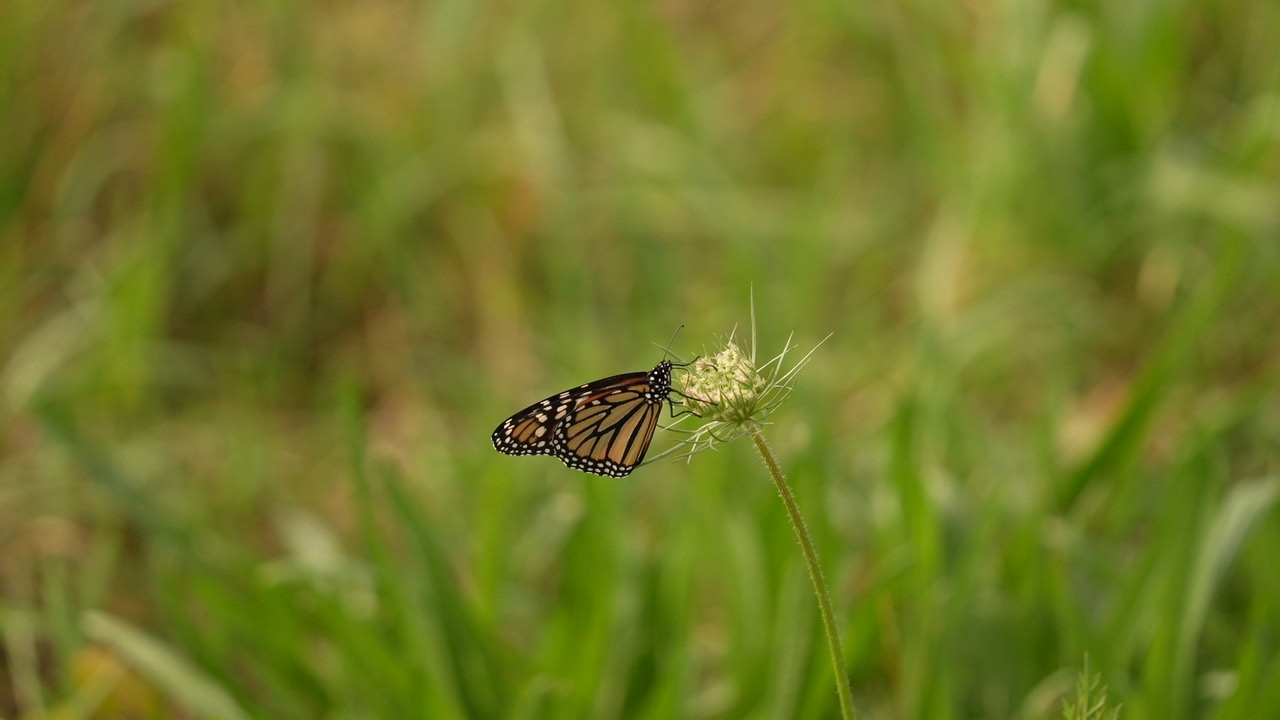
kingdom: Animalia
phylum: Arthropoda
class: Insecta
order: Lepidoptera
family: Nymphalidae
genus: Danaus
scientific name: Danaus plexippus
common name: Monarch
